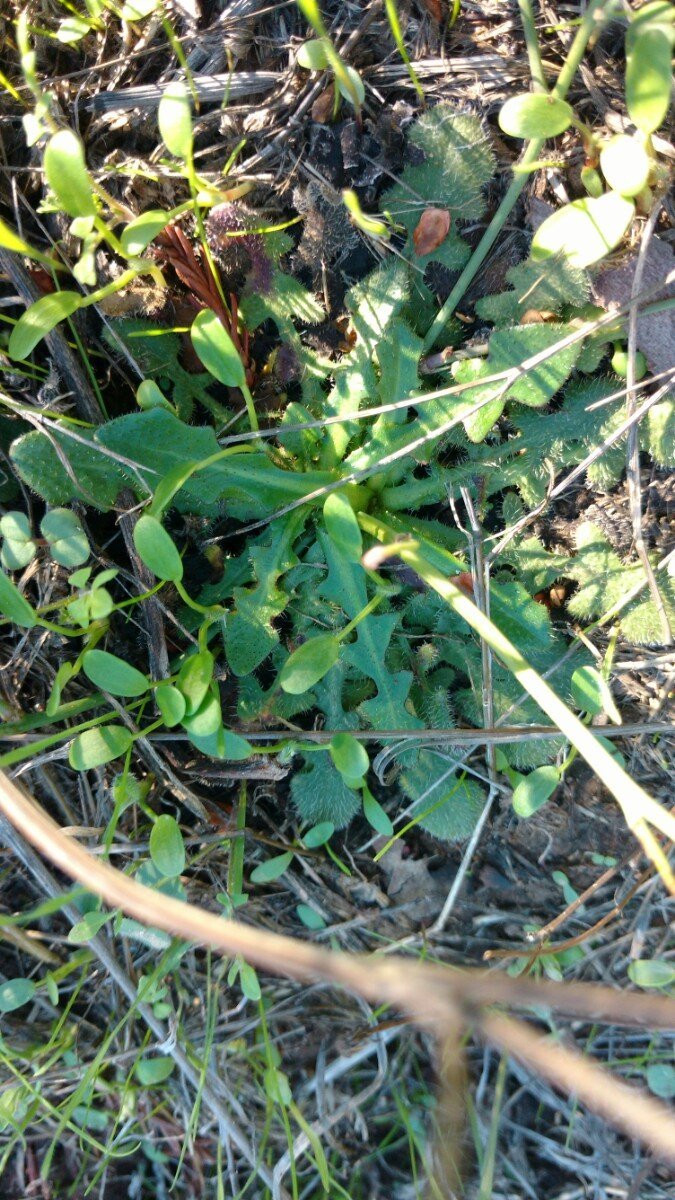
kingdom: Plantae
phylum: Tracheophyta
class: Magnoliopsida
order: Asterales
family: Asteraceae
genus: Hypochaeris
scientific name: Hypochaeris radicata
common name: Flatweed
